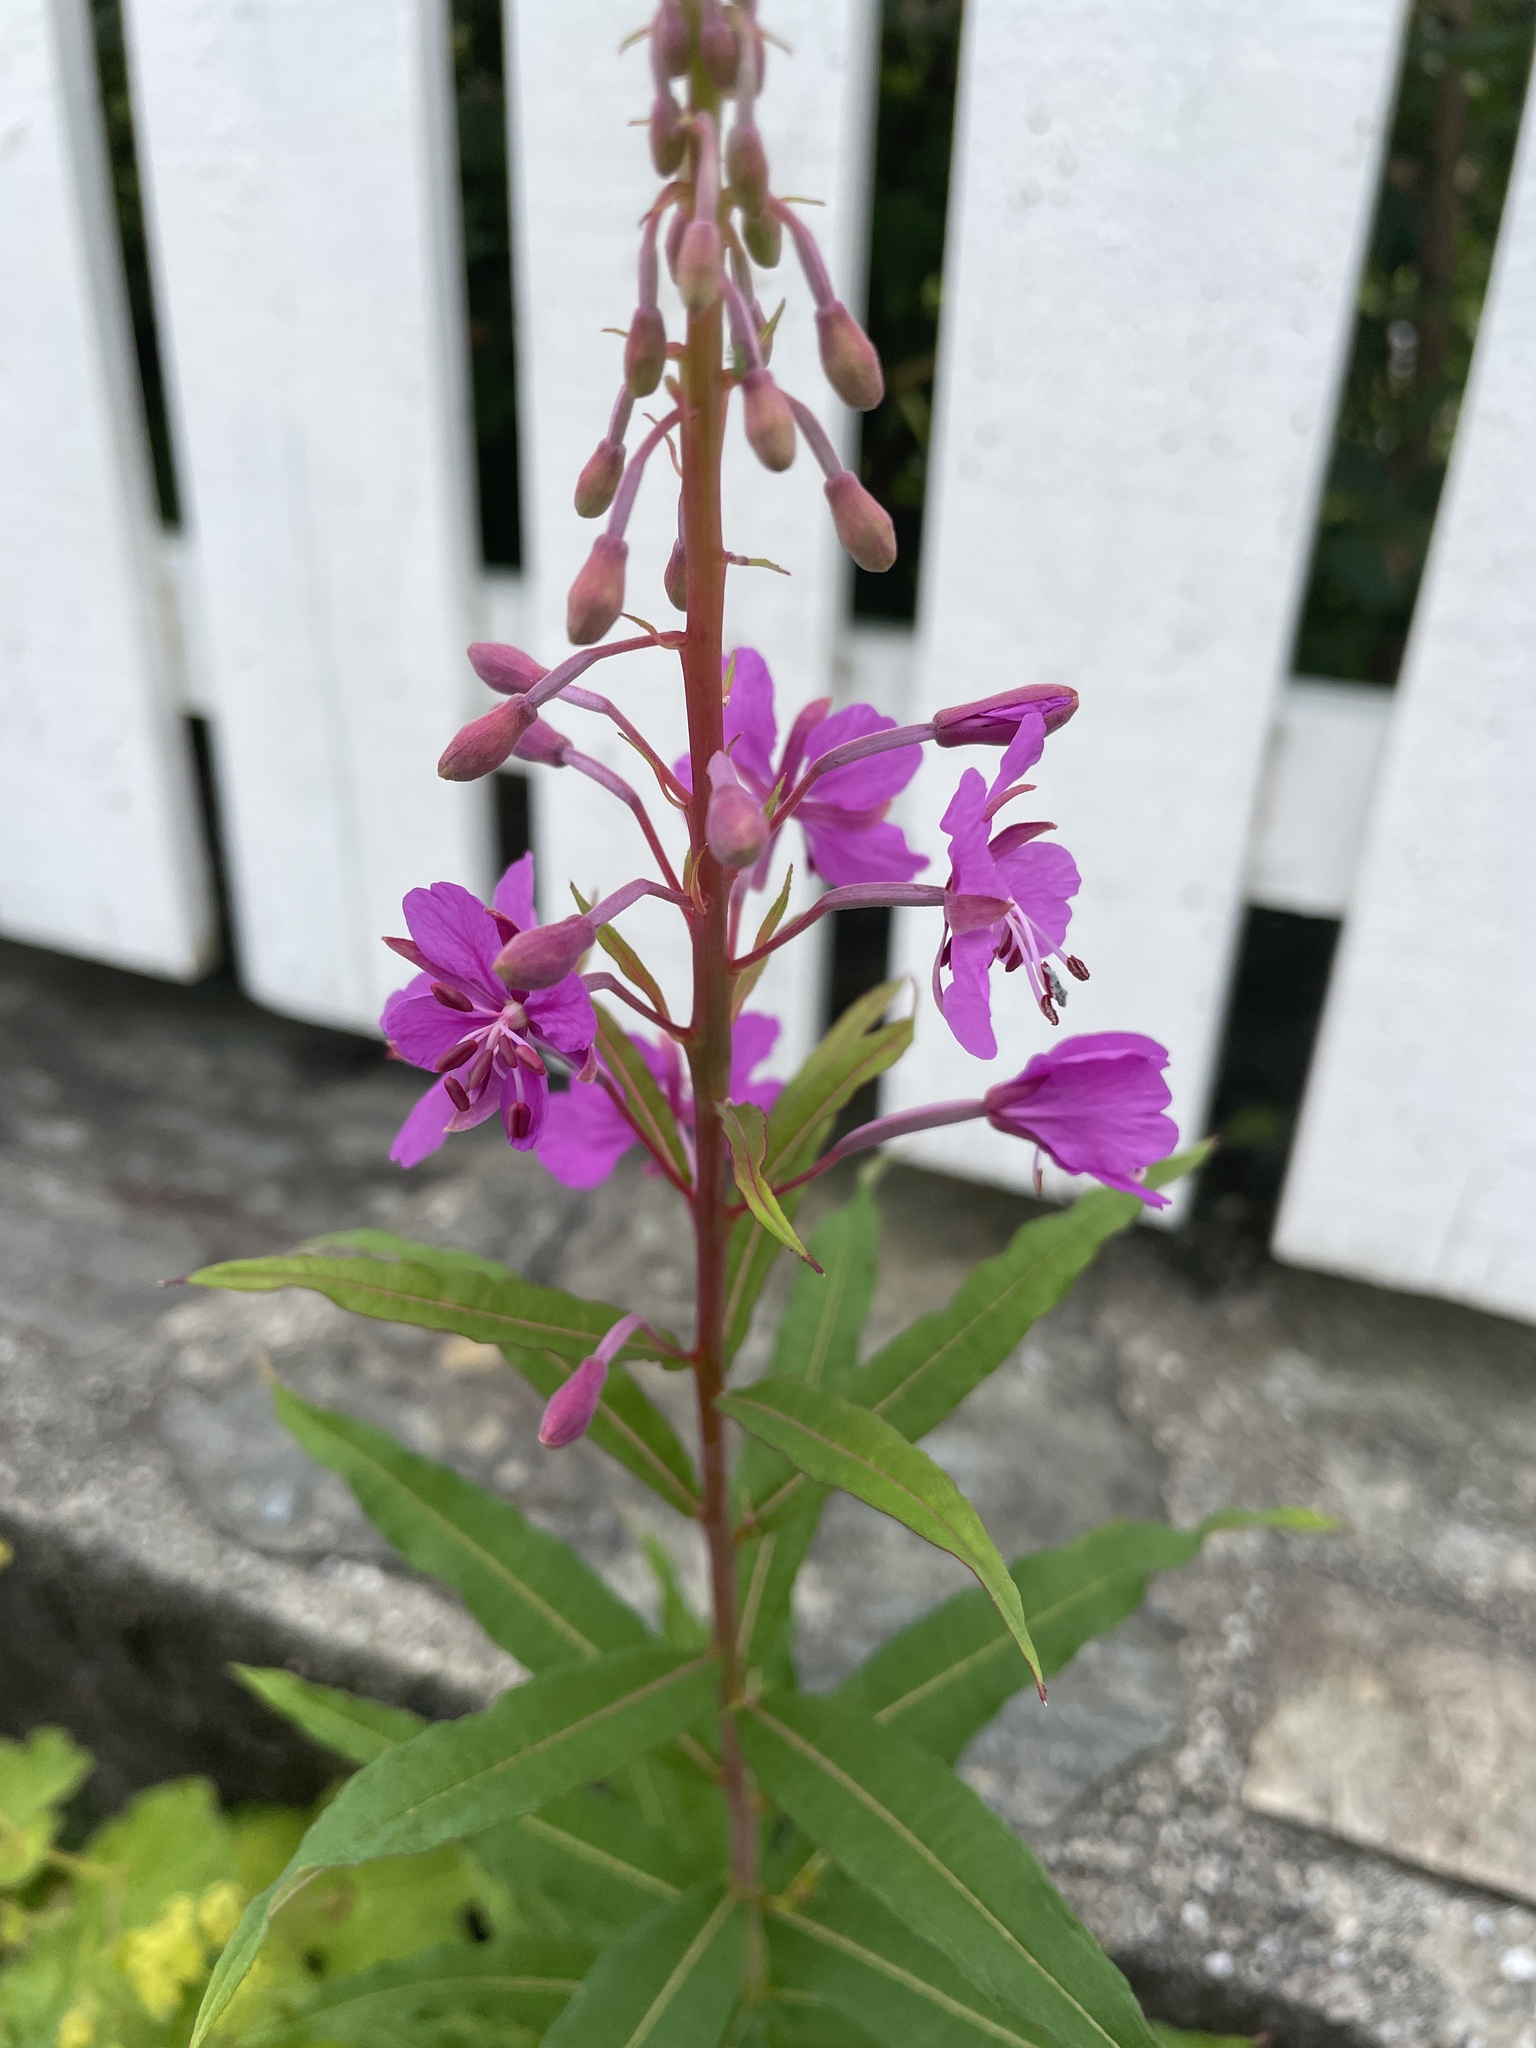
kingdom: Plantae
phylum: Tracheophyta
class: Magnoliopsida
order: Myrtales
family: Onagraceae
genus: Chamaenerion
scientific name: Chamaenerion angustifolium
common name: Fireweed
